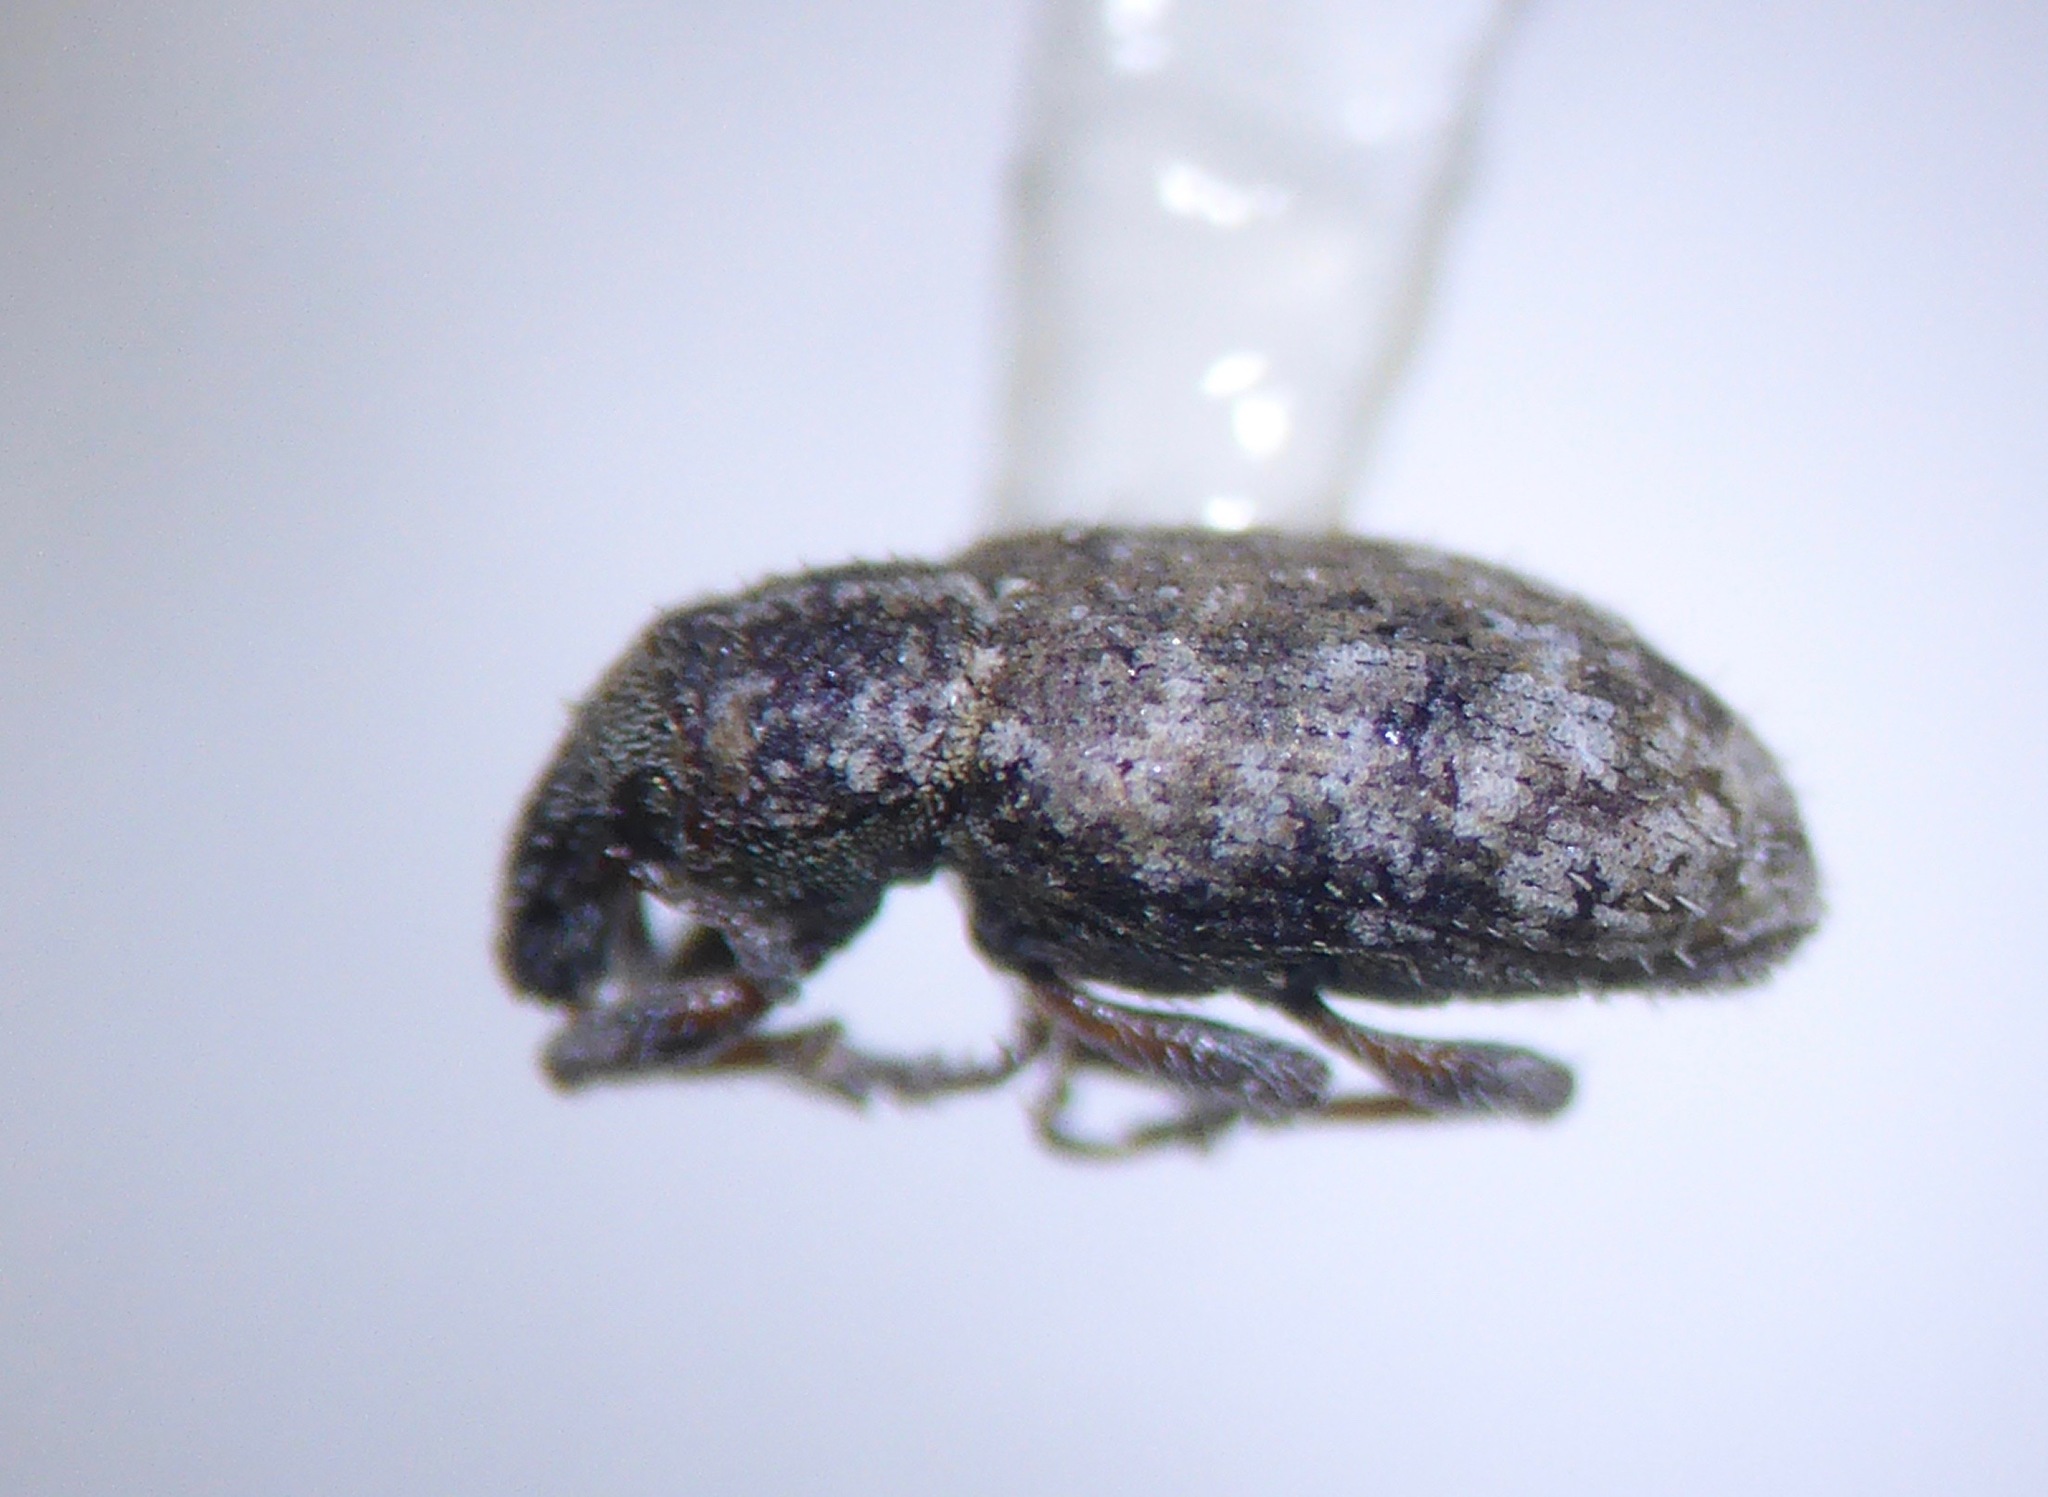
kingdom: Animalia
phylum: Arthropoda
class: Insecta
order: Coleoptera
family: Curculionidae
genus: Listronotus
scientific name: Listronotus bonariensis
